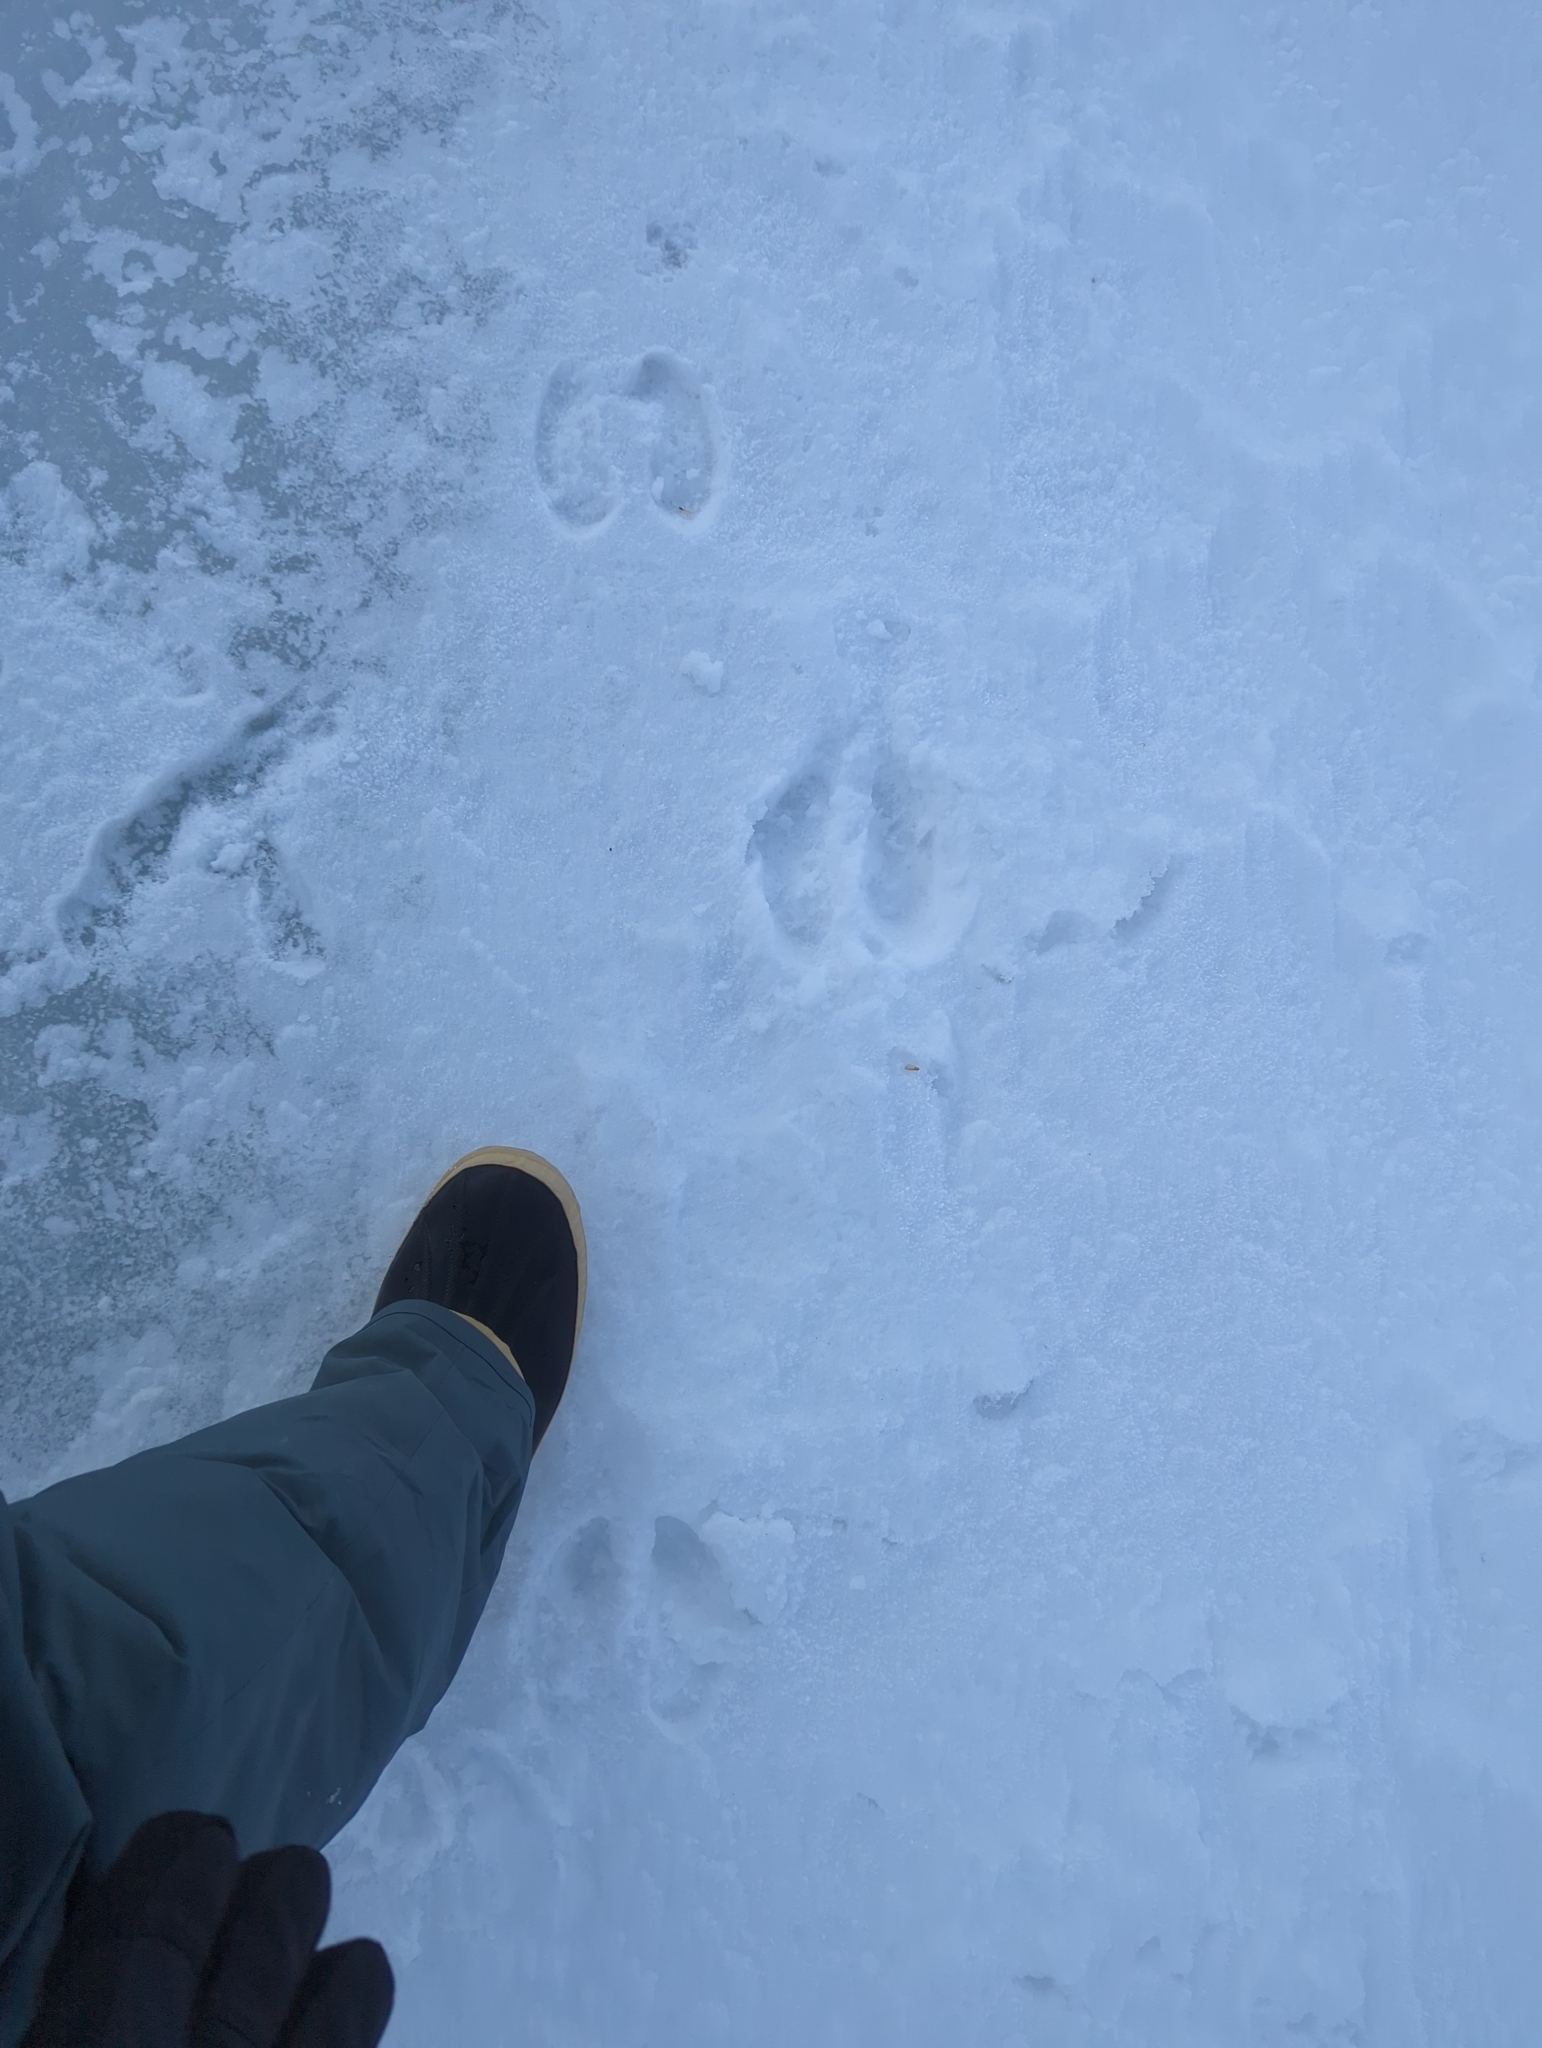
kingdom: Animalia
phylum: Chordata
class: Mammalia
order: Artiodactyla
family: Cervidae
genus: Alces
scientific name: Alces alces
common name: Moose
